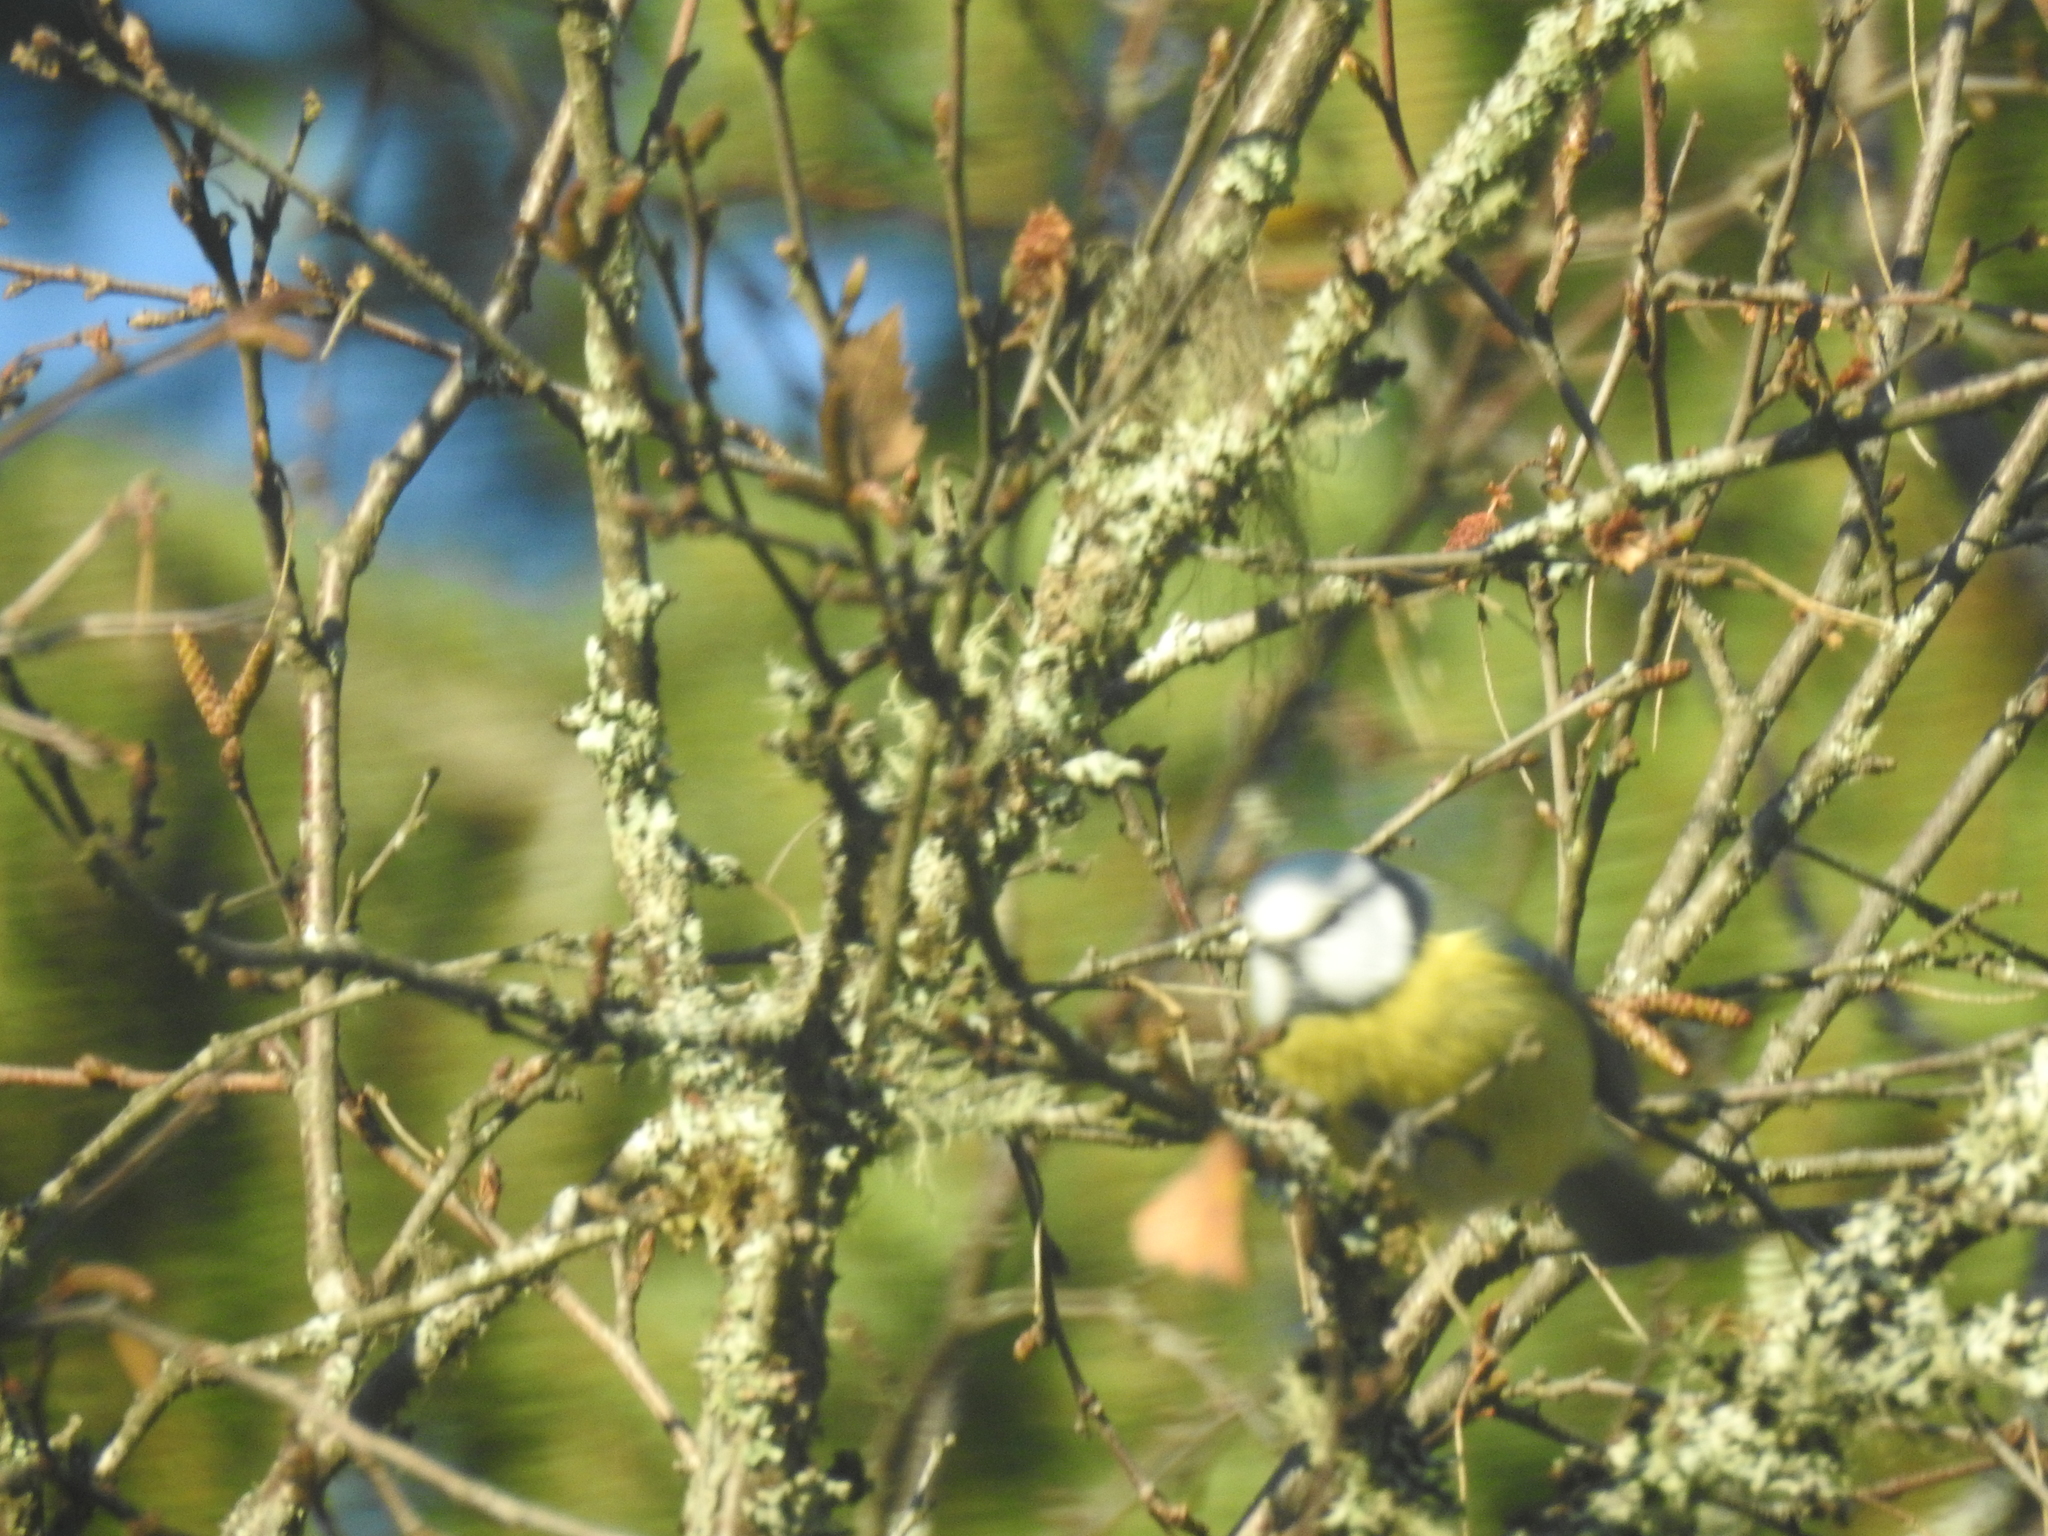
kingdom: Animalia
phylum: Chordata
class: Aves
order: Passeriformes
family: Paridae
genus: Cyanistes
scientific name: Cyanistes caeruleus
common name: Eurasian blue tit
